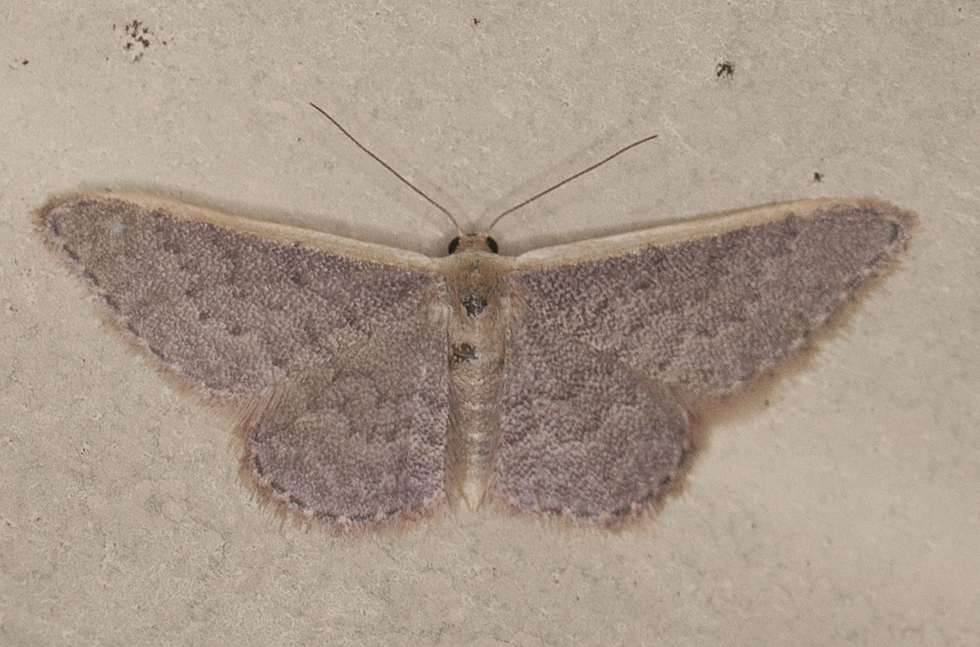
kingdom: Animalia
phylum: Arthropoda
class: Insecta
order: Lepidoptera
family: Geometridae
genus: Idaea
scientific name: Idaea inversata
